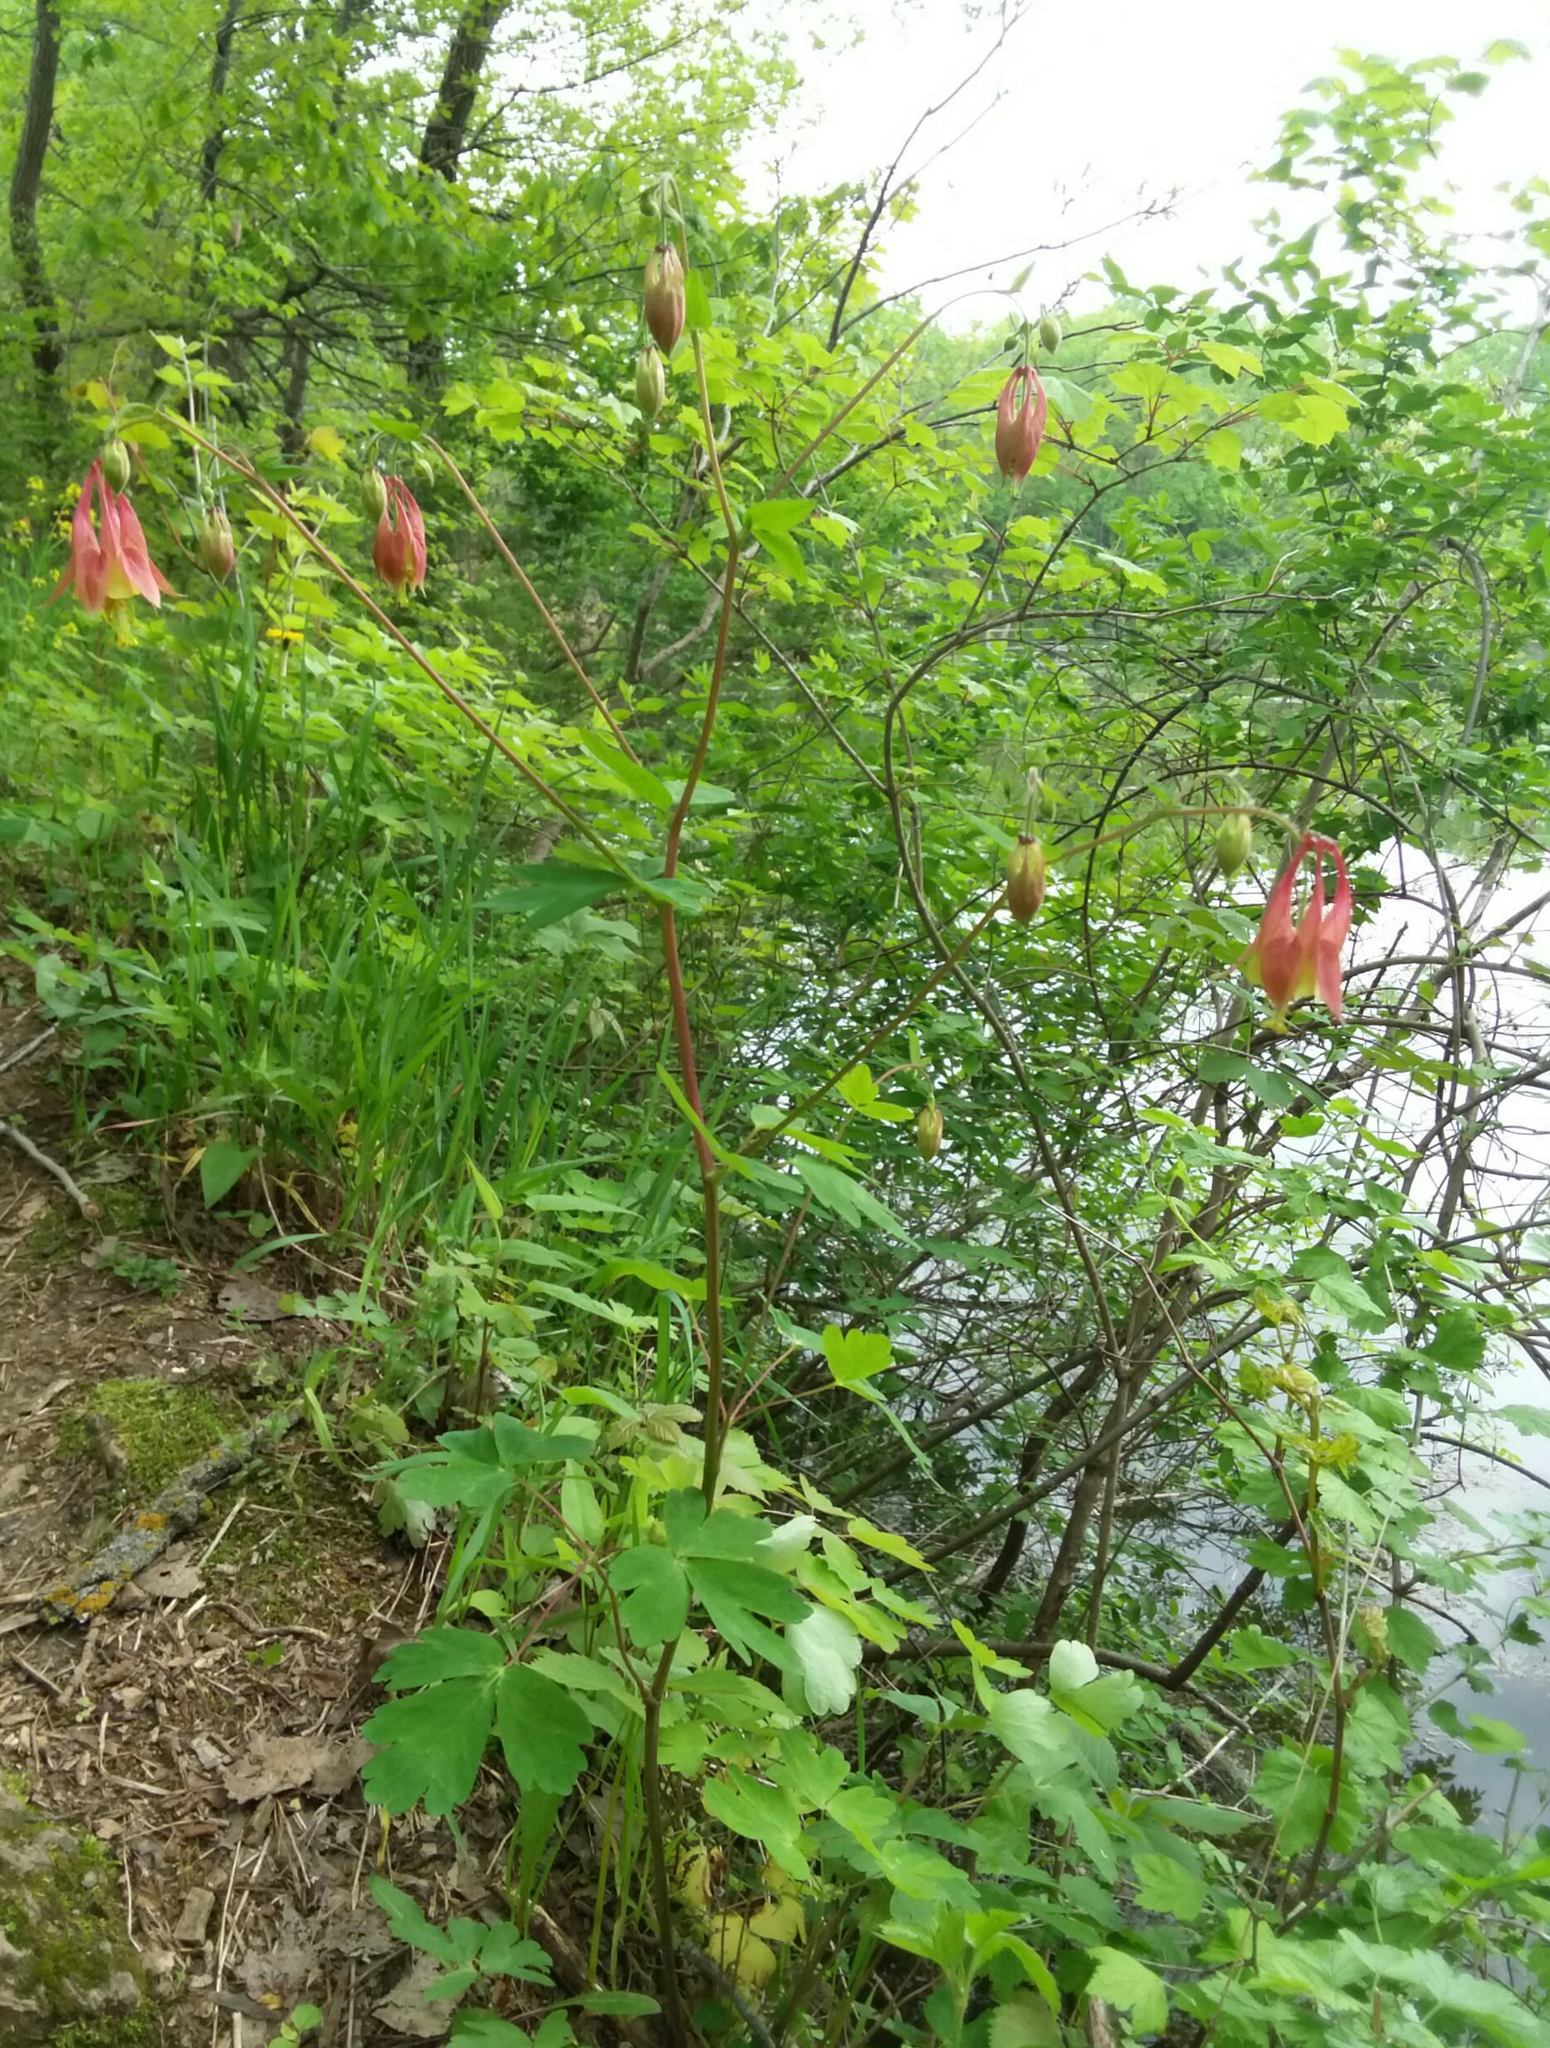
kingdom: Plantae
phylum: Tracheophyta
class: Magnoliopsida
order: Ranunculales
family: Ranunculaceae
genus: Aquilegia
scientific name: Aquilegia canadensis
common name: American columbine
